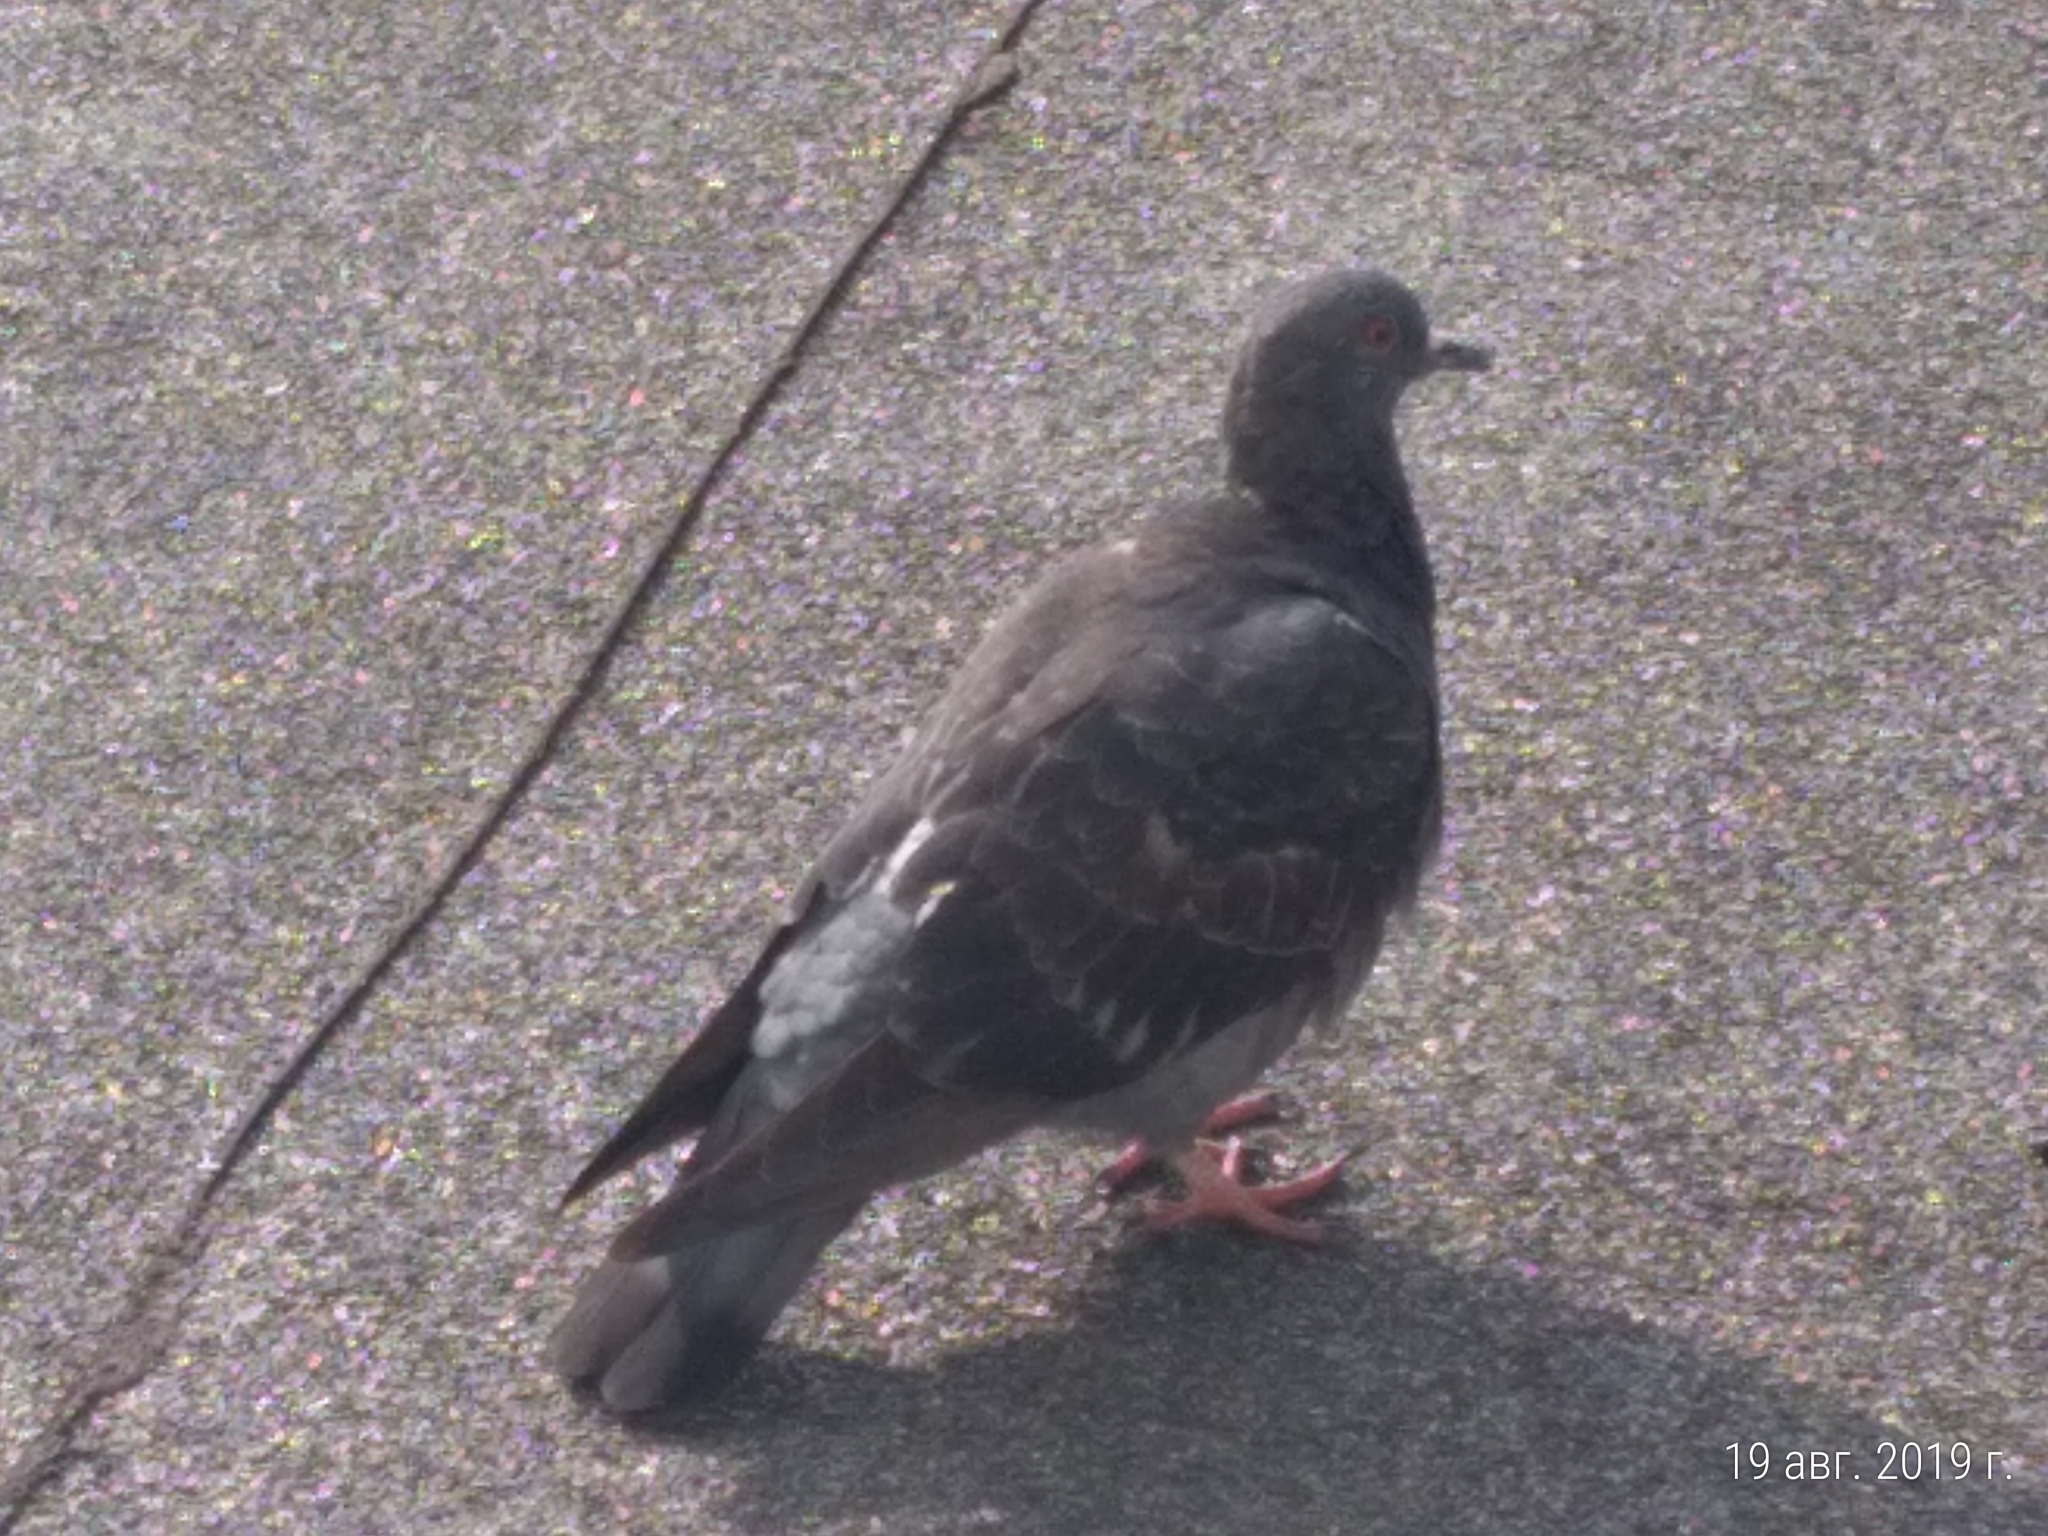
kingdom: Animalia
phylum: Chordata
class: Aves
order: Columbiformes
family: Columbidae
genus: Columba
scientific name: Columba livia
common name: Rock pigeon
